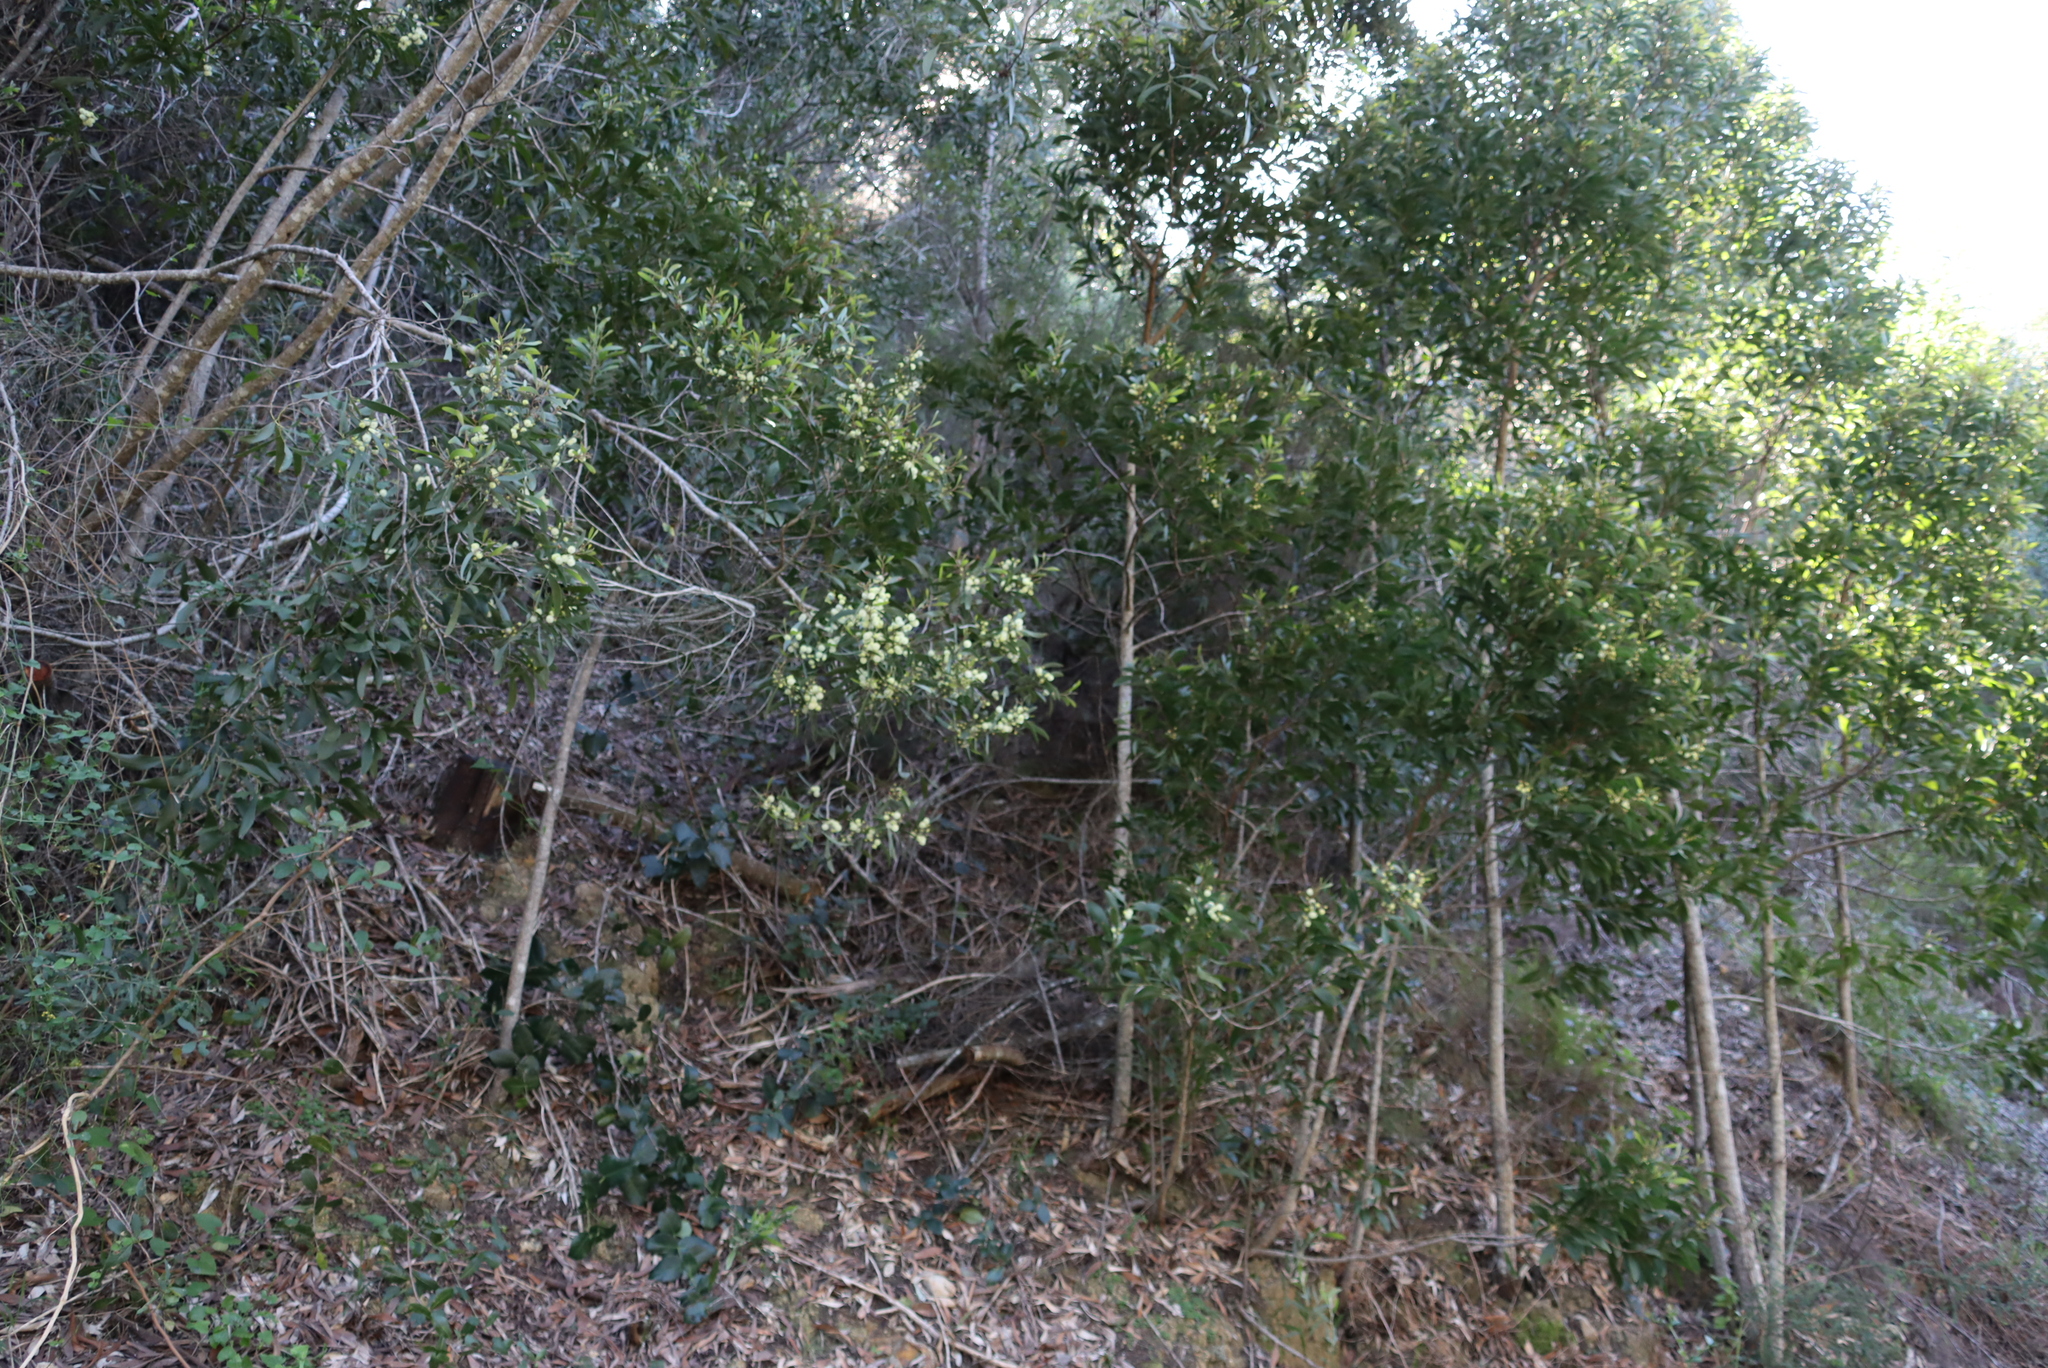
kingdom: Plantae
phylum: Tracheophyta
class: Magnoliopsida
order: Fabales
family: Fabaceae
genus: Acacia
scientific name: Acacia melanoxylon
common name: Blackwood
